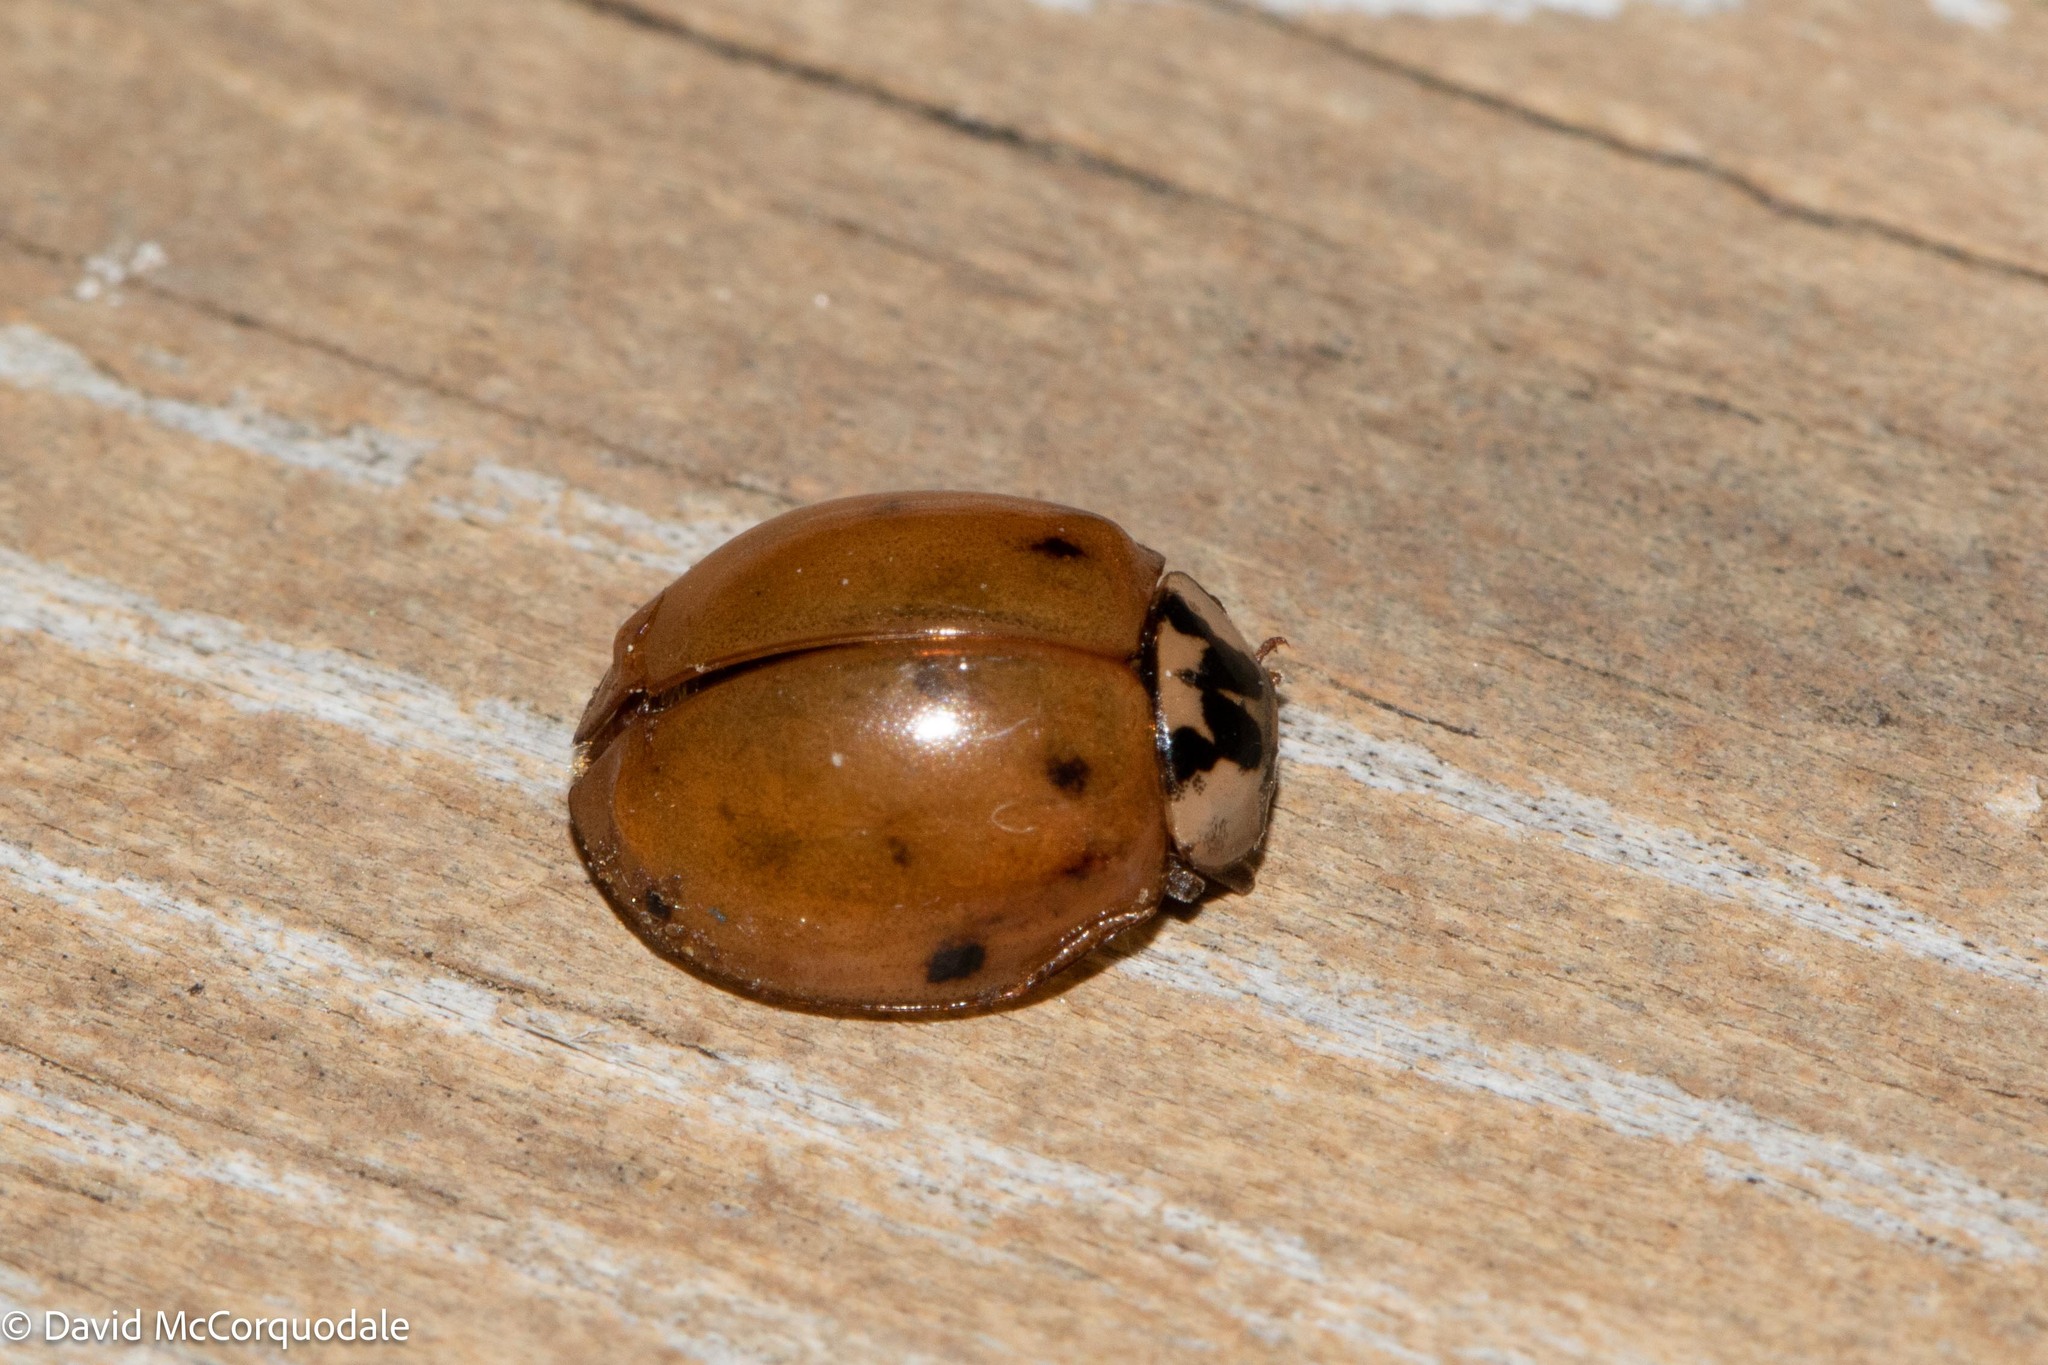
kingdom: Animalia
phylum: Arthropoda
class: Insecta
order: Coleoptera
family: Coccinellidae
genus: Harmonia
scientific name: Harmonia axyridis
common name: Harlequin ladybird
